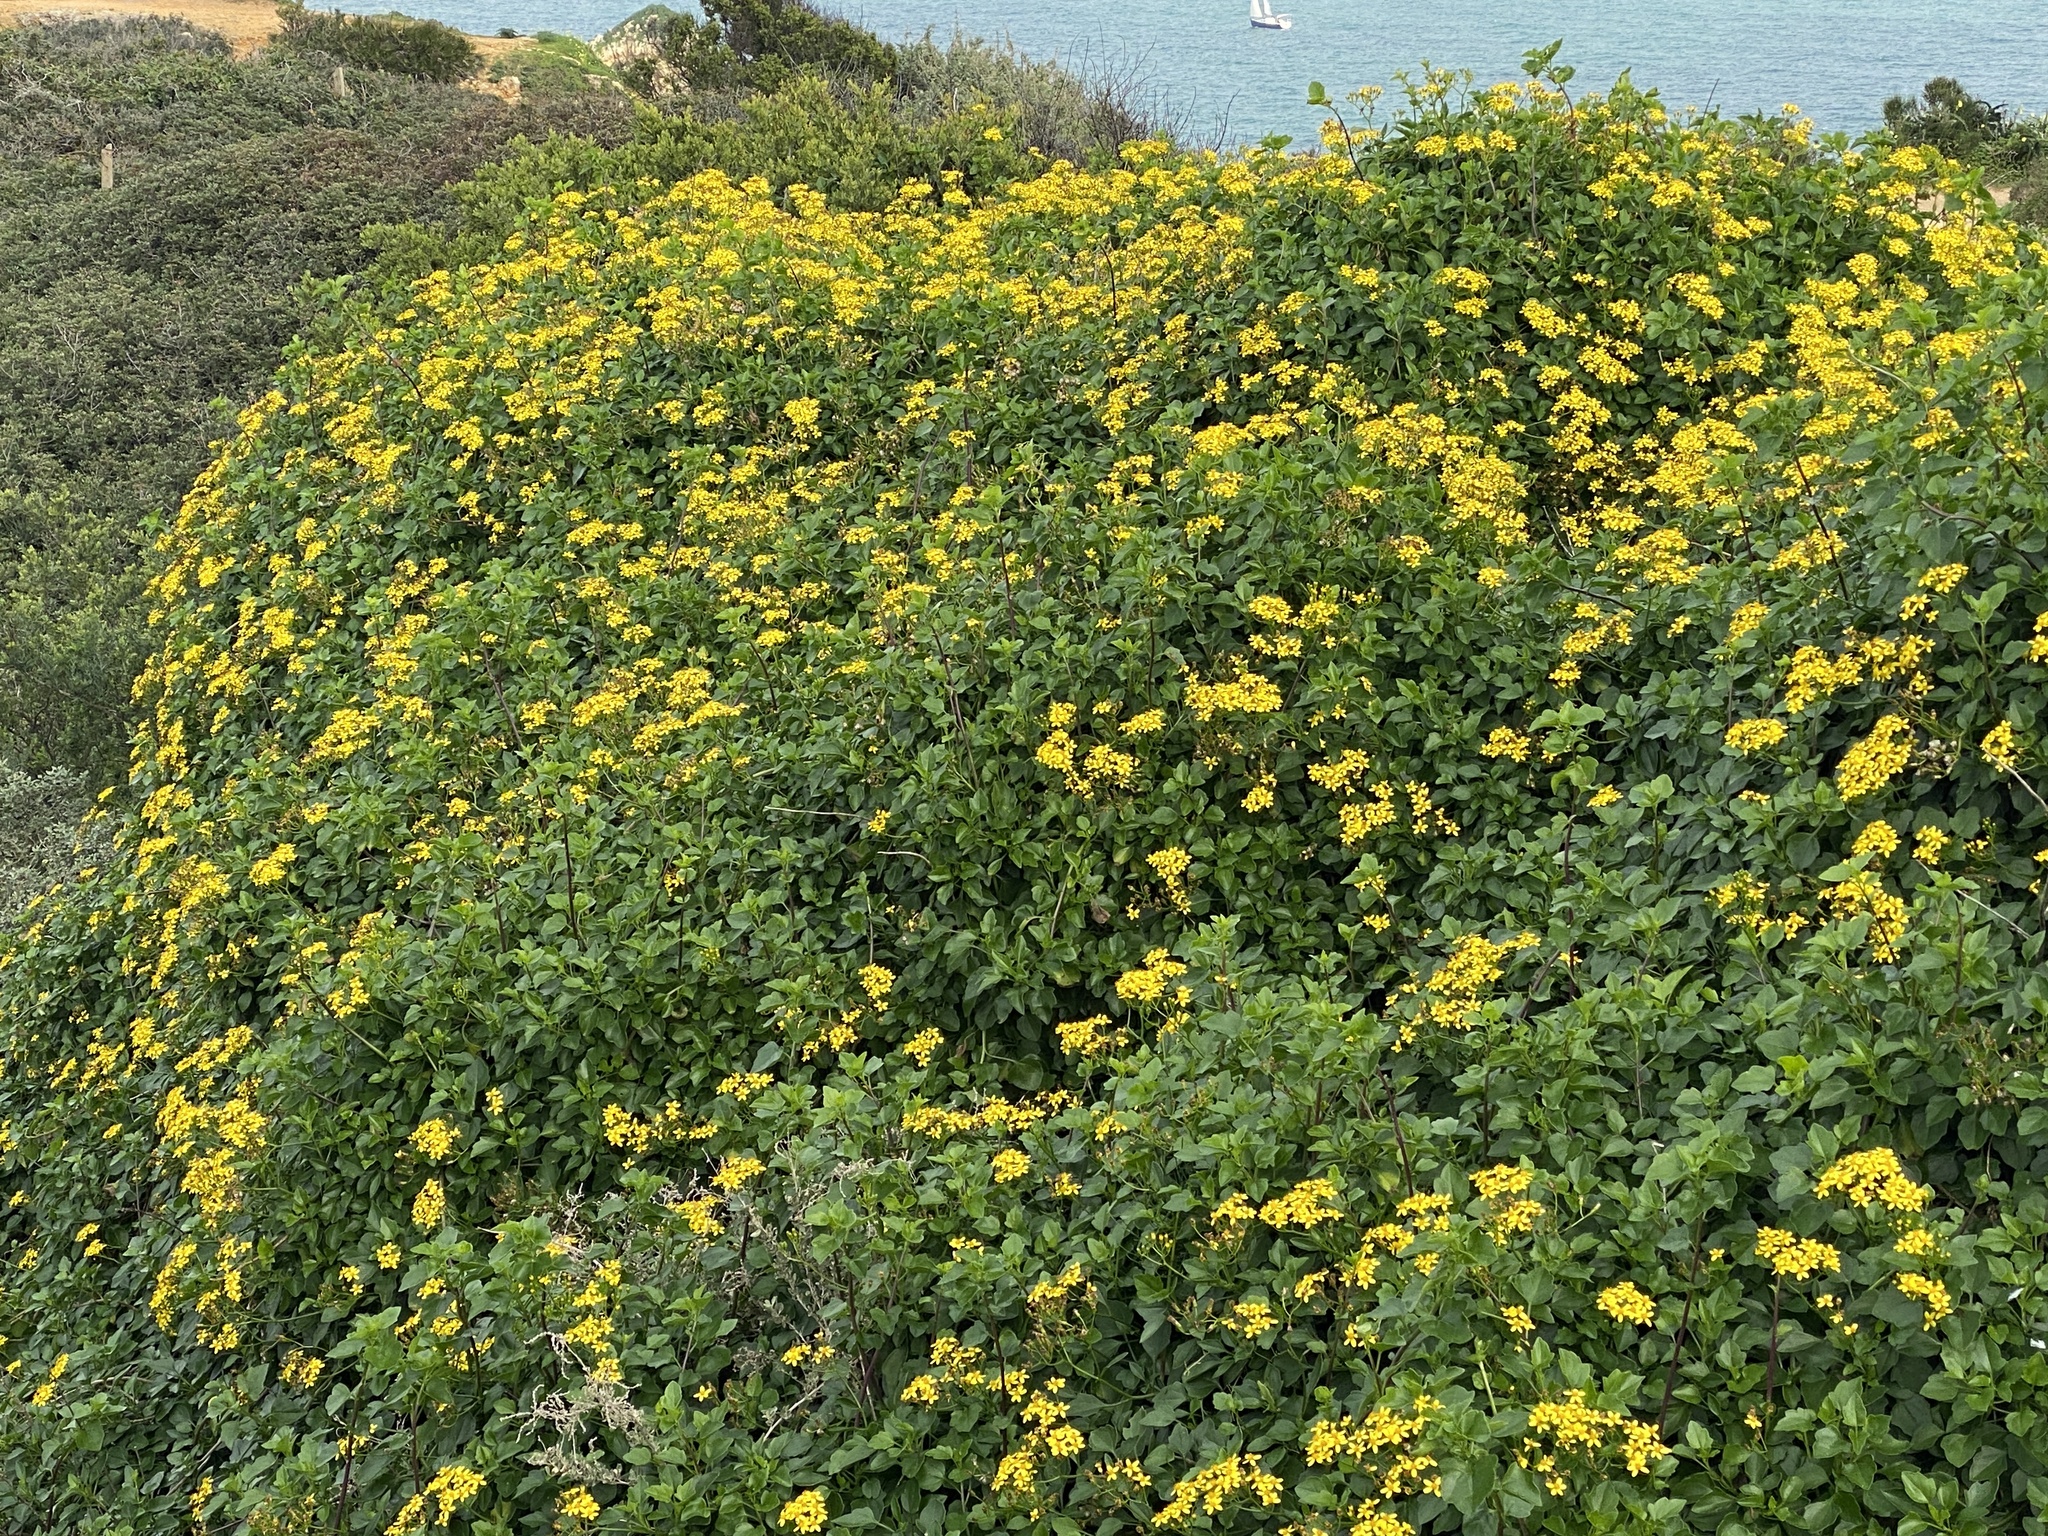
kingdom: Plantae
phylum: Tracheophyta
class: Magnoliopsida
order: Asterales
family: Asteraceae
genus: Senecio
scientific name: Senecio angulatus
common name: Climbing groundsel
